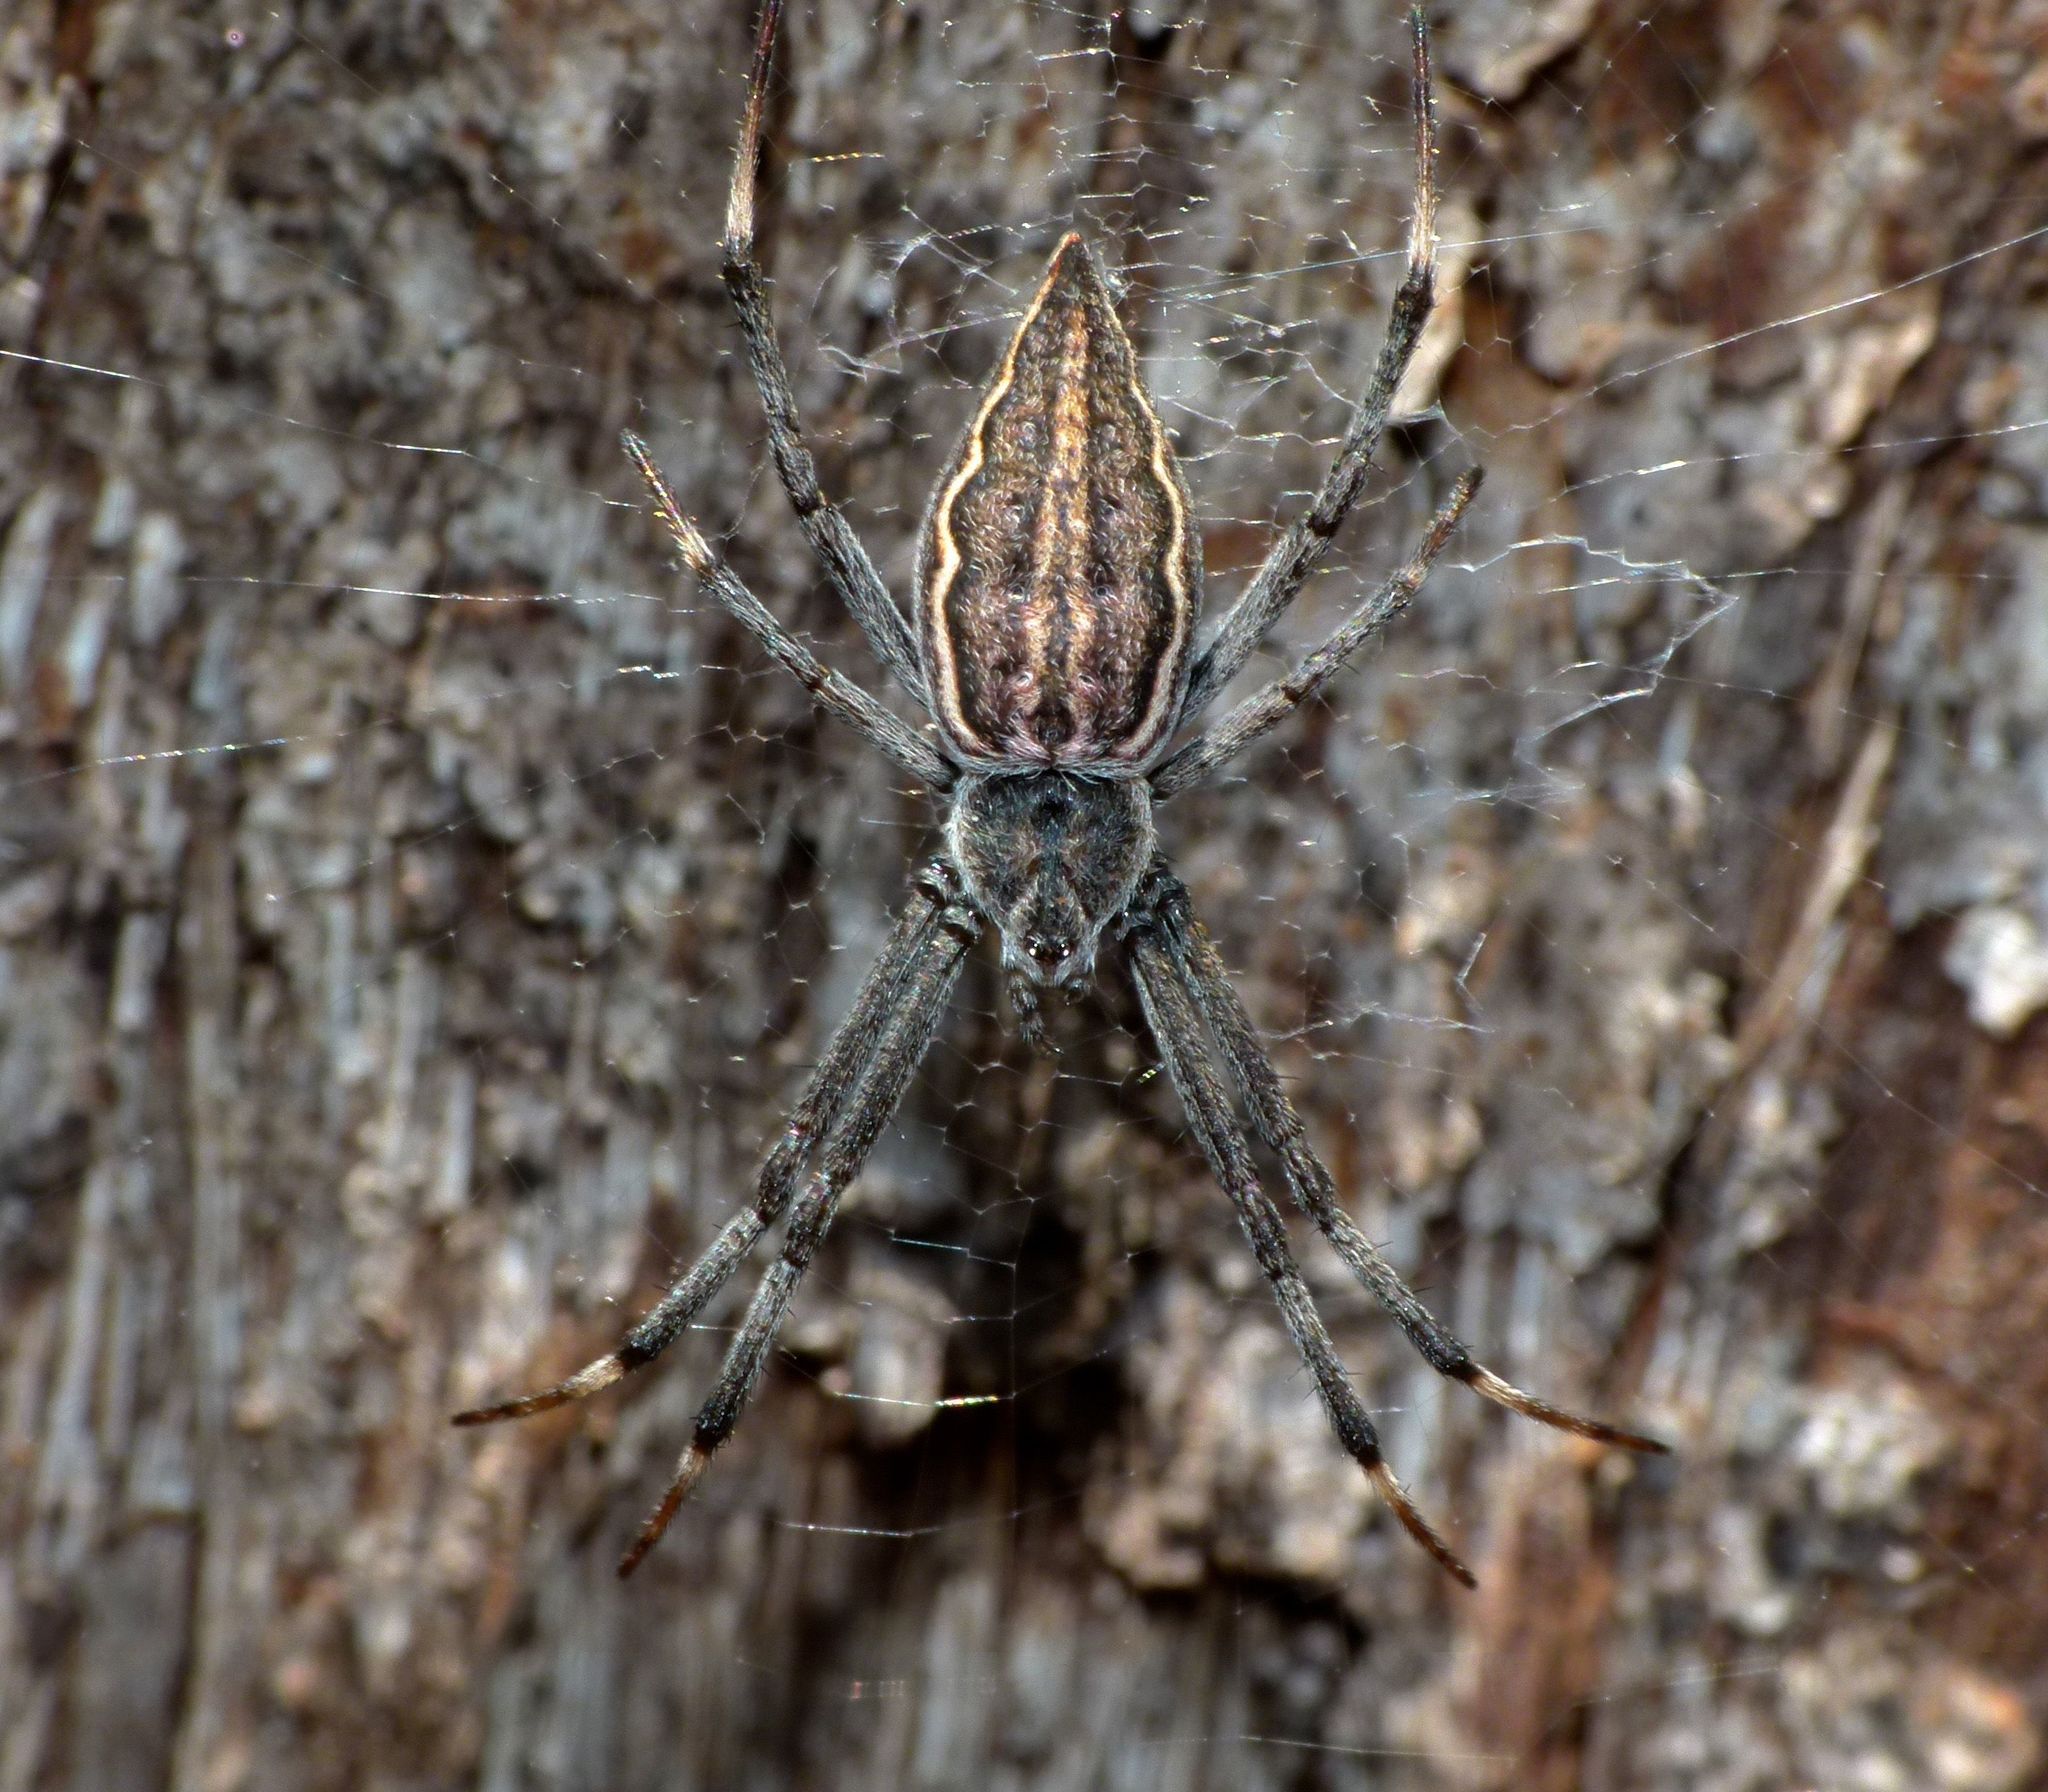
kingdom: Animalia
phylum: Arthropoda
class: Arachnida
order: Araneae
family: Araneidae
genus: Argiope
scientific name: Argiope ocyaloides
